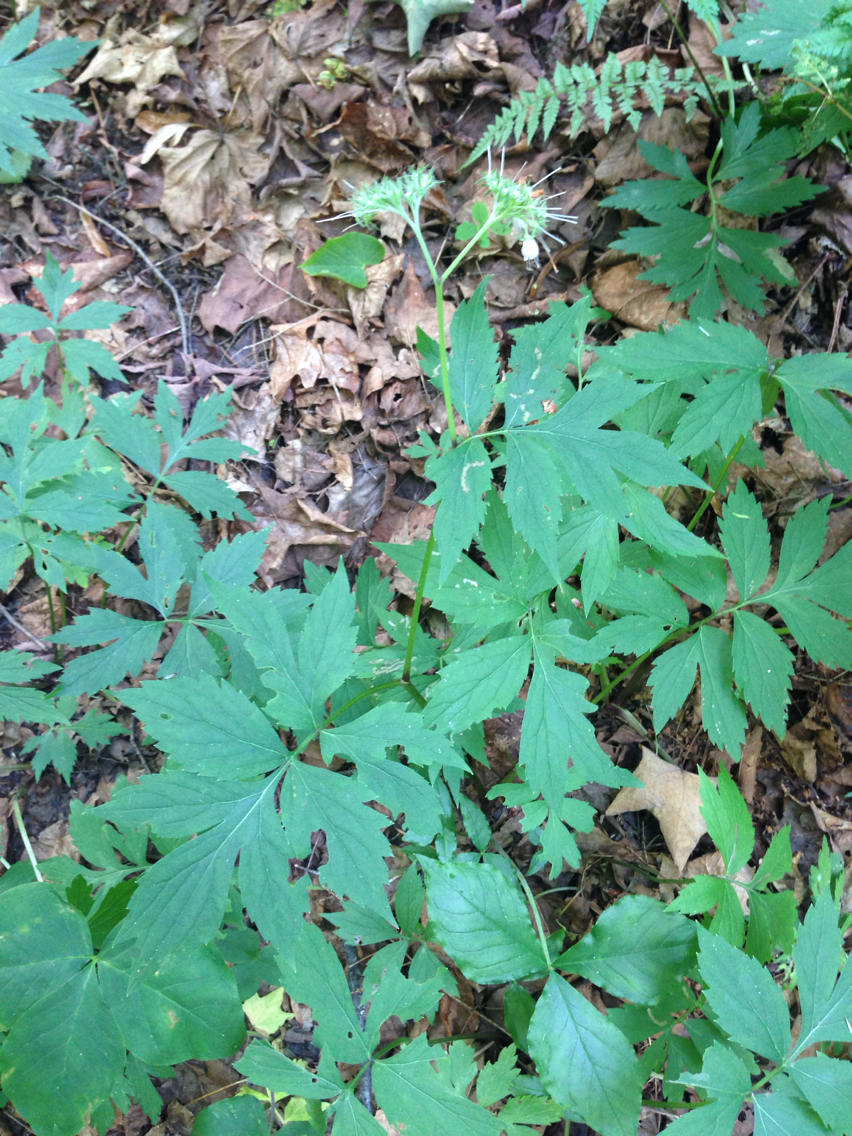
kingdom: Plantae
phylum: Tracheophyta
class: Magnoliopsida
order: Boraginales
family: Hydrophyllaceae
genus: Hydrophyllum
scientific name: Hydrophyllum virginianum
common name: Virginia waterleaf
